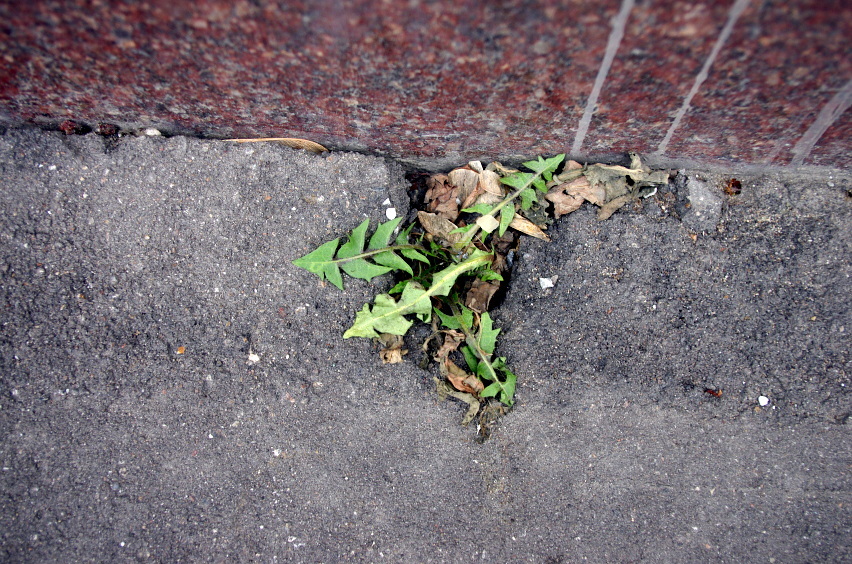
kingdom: Plantae
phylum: Tracheophyta
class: Magnoliopsida
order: Asterales
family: Asteraceae
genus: Taraxacum
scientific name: Taraxacum officinale
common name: Common dandelion
